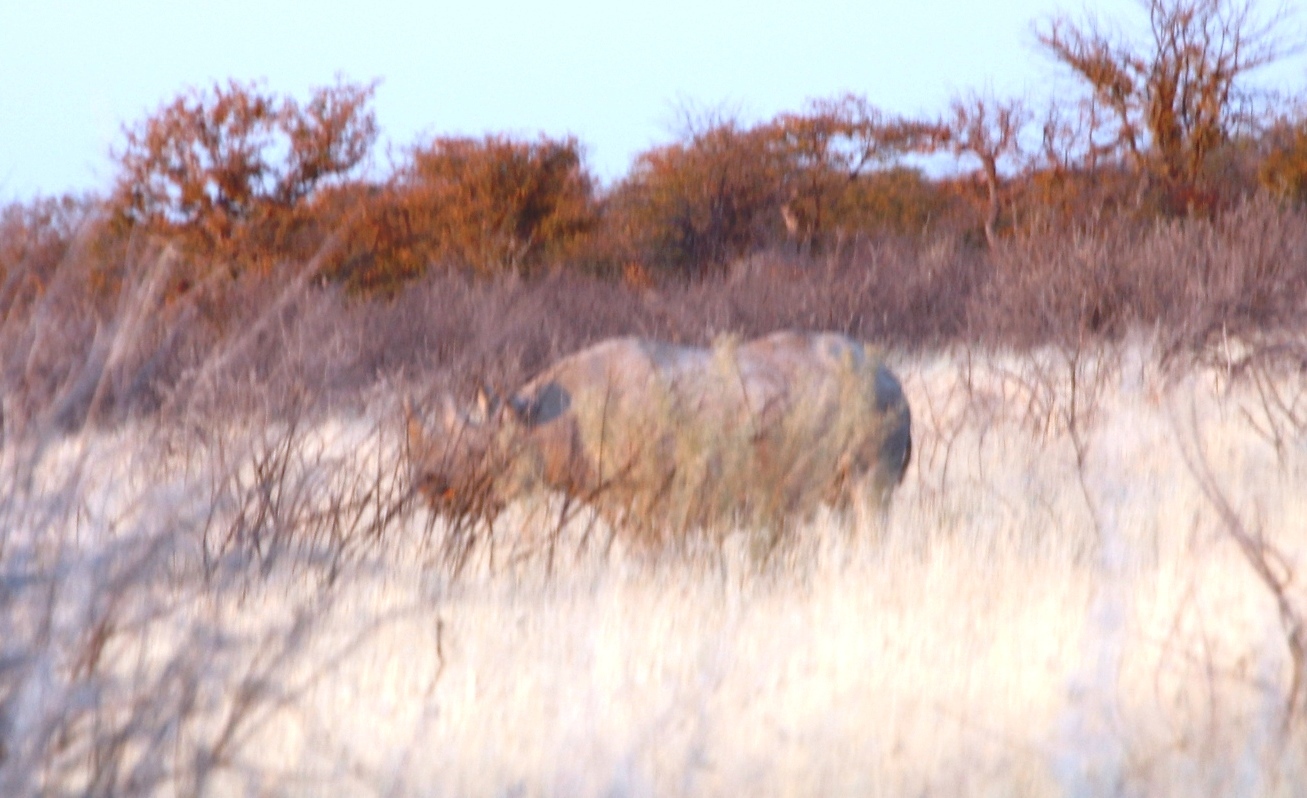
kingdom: Animalia
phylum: Chordata
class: Mammalia
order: Perissodactyla
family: Rhinocerotidae
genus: Diceros
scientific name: Diceros bicornis
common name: Black rhinoceros
